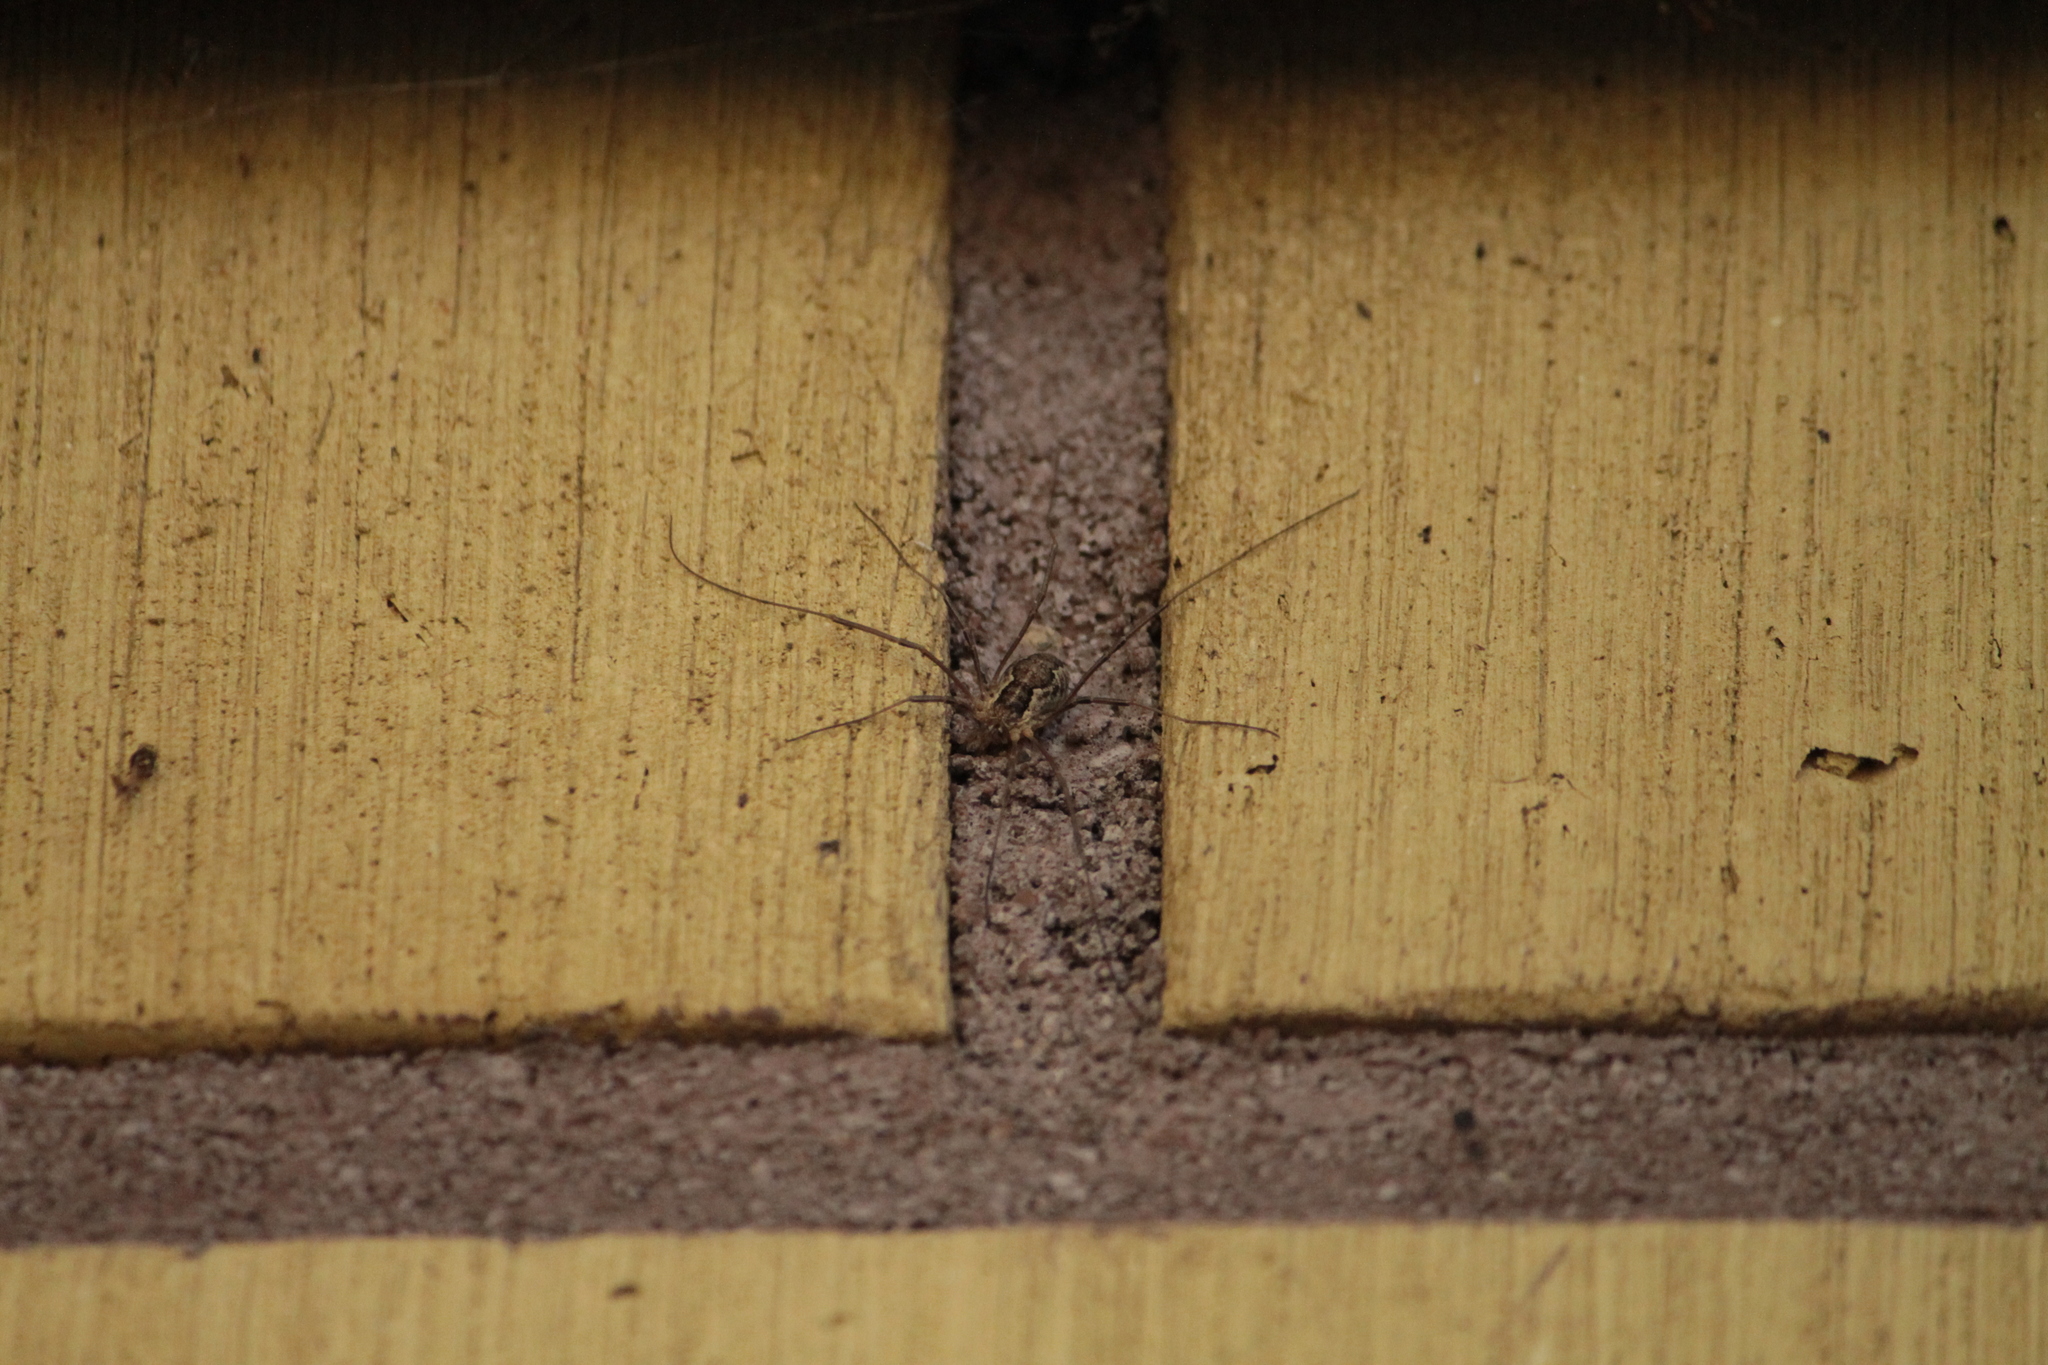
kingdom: Animalia
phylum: Arthropoda
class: Arachnida
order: Opiliones
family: Phalangiidae
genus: Mitopus
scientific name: Mitopus morio
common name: Saddleback harvestman
